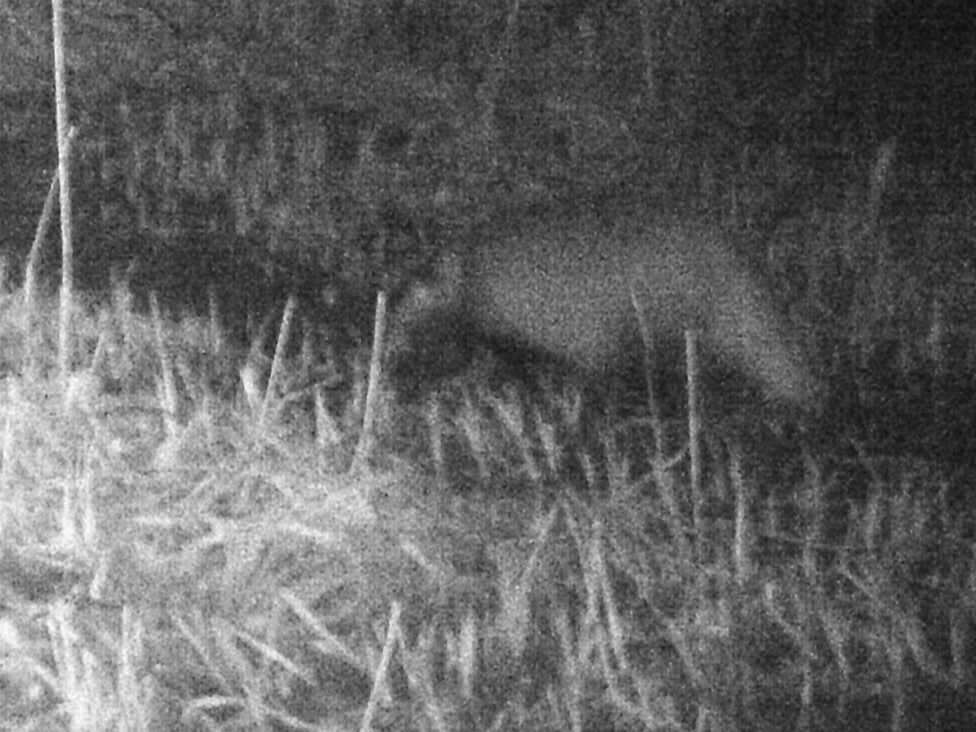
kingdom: Animalia
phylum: Chordata
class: Mammalia
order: Carnivora
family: Mustelidae
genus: Meles
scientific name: Meles meles
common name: Eurasian badger
